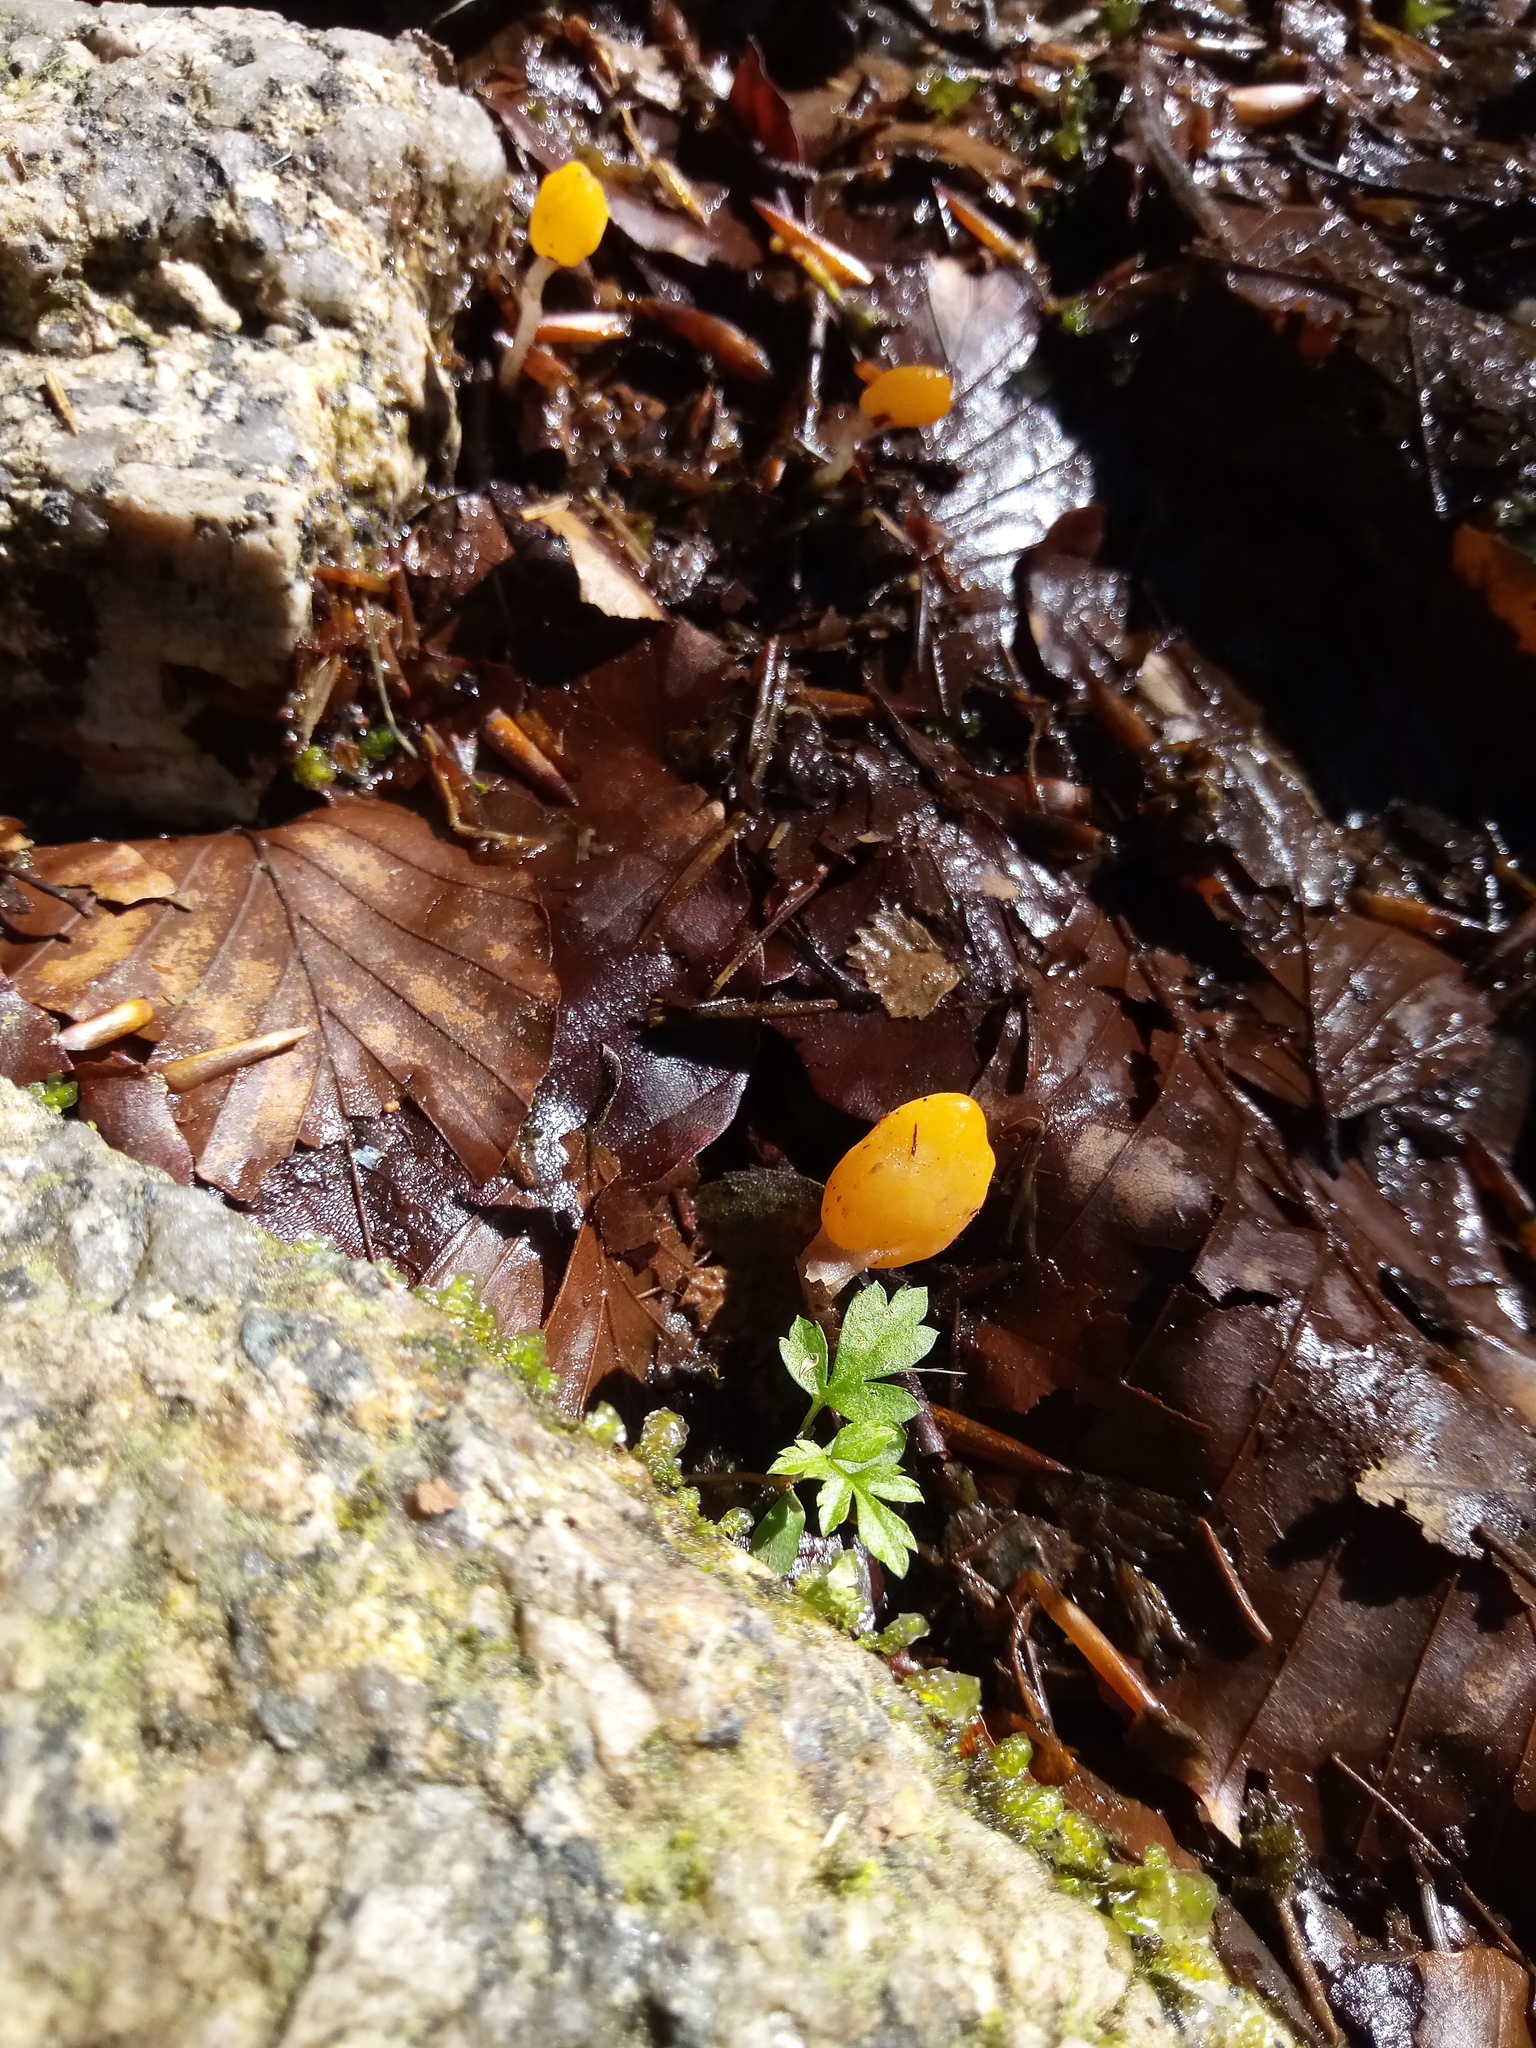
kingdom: Fungi
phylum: Ascomycota
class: Leotiomycetes
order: Helotiales
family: Cenangiaceae
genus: Mitrula
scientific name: Mitrula paludosa
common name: Bog beacon
